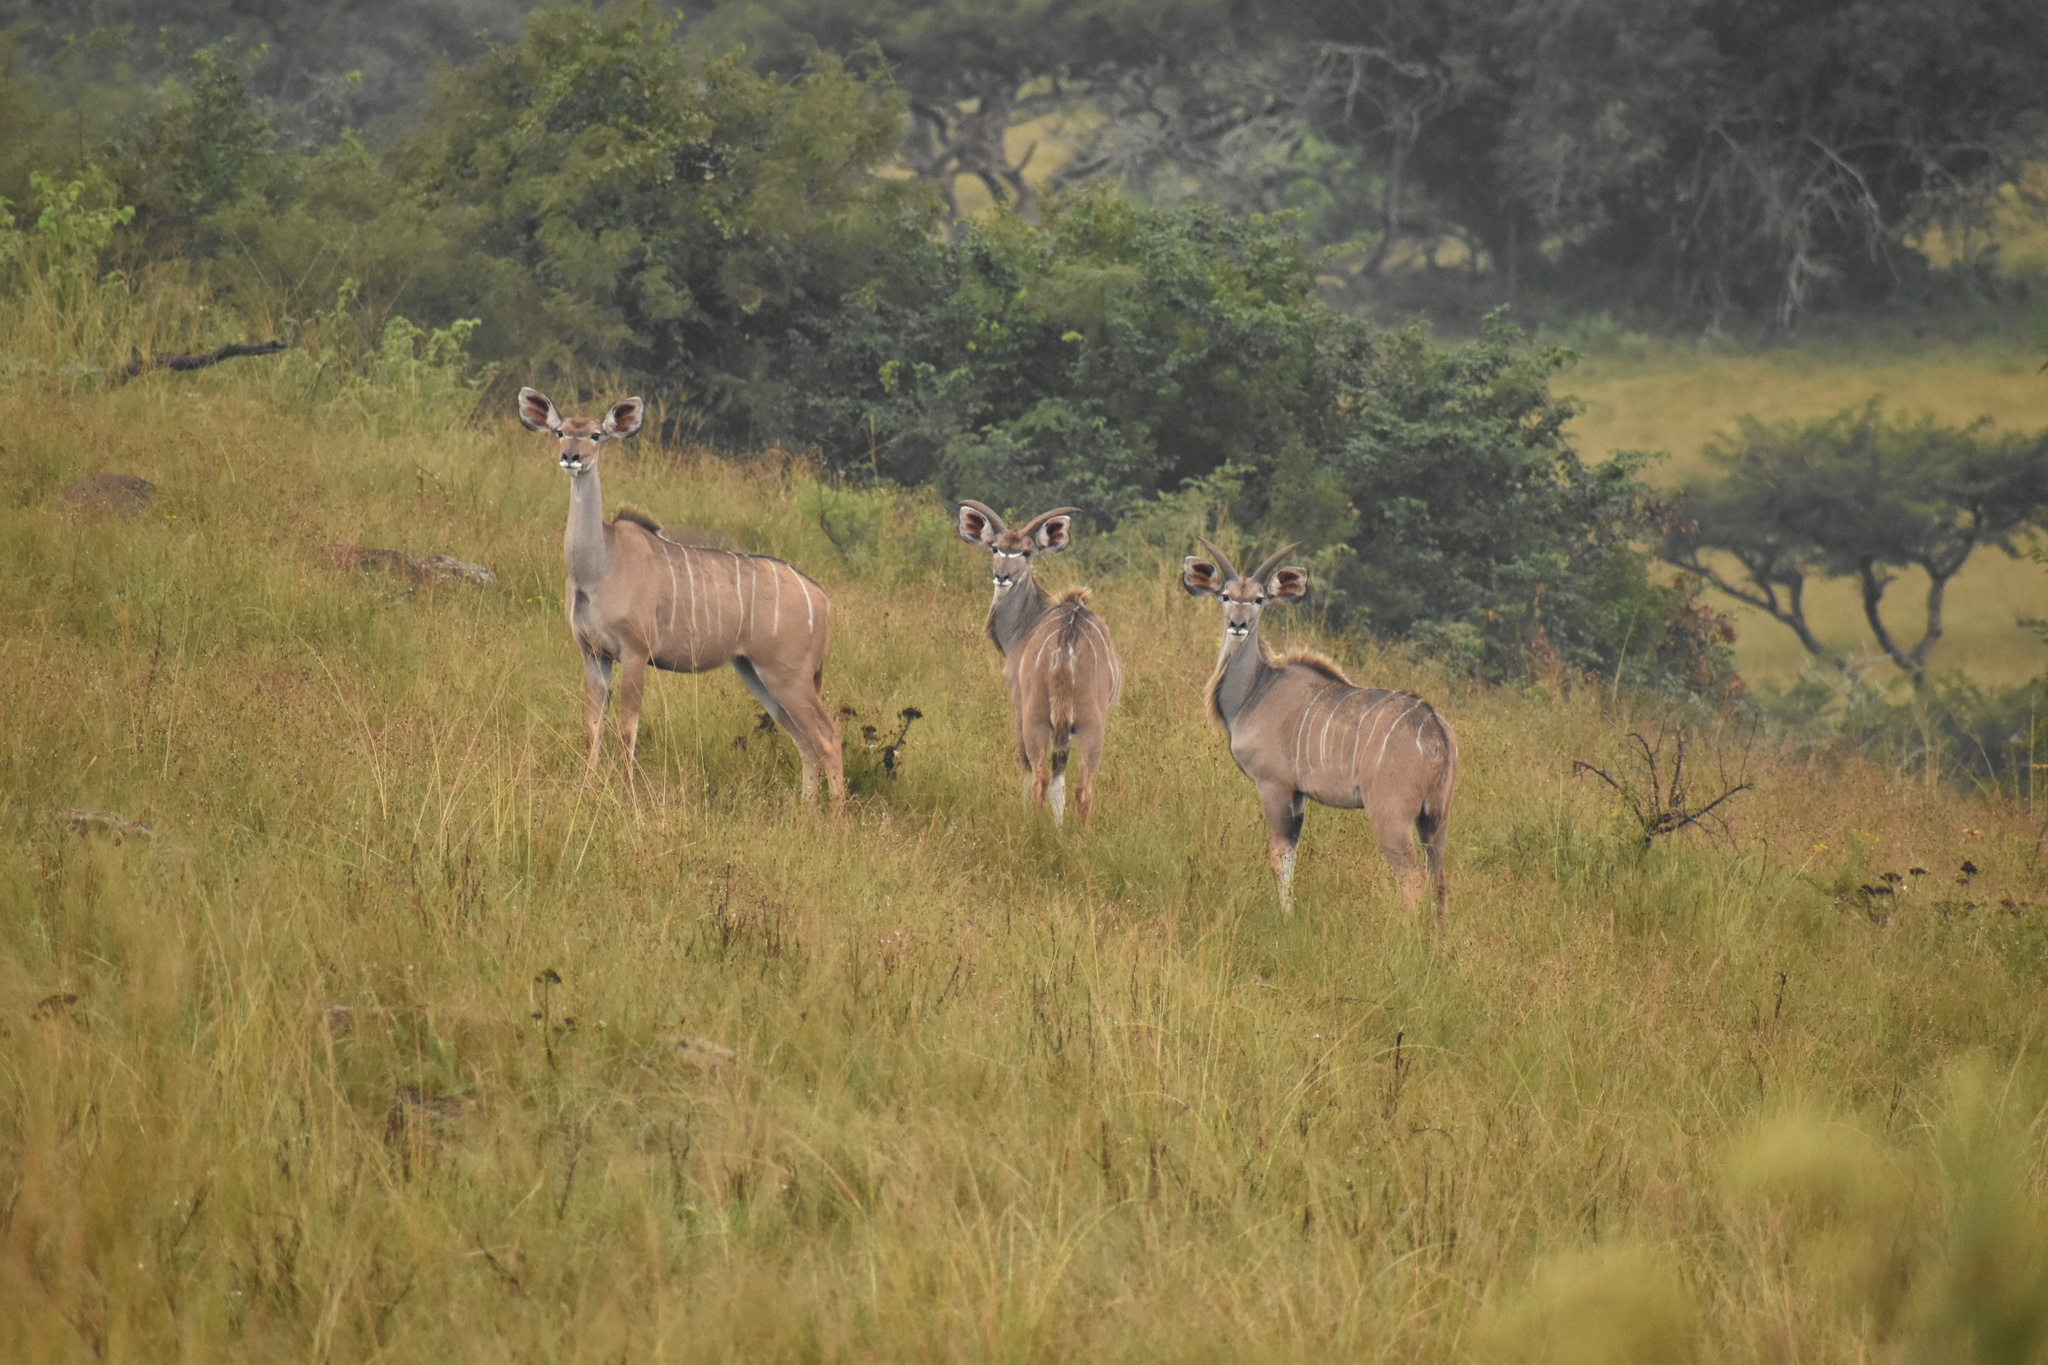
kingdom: Animalia
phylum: Chordata
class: Mammalia
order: Artiodactyla
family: Bovidae
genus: Tragelaphus
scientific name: Tragelaphus strepsiceros
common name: Greater kudu
